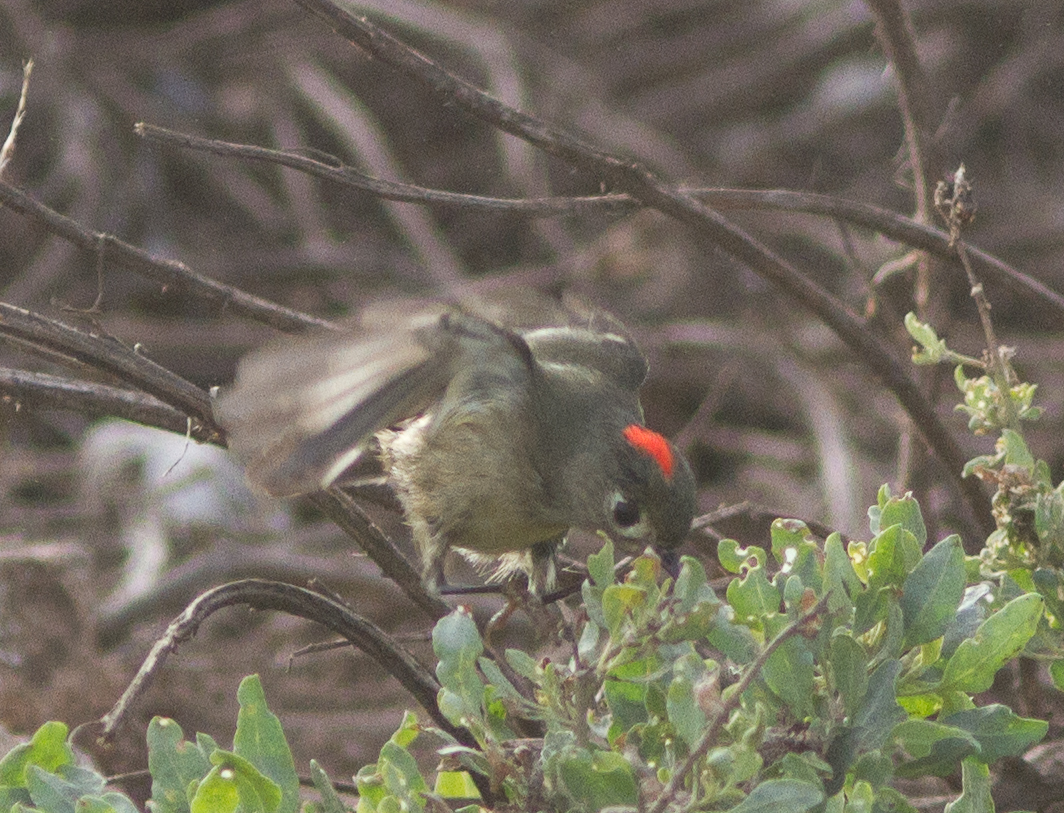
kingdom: Animalia
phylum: Chordata
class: Aves
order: Passeriformes
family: Regulidae
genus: Regulus
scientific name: Regulus calendula
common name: Ruby-crowned kinglet
